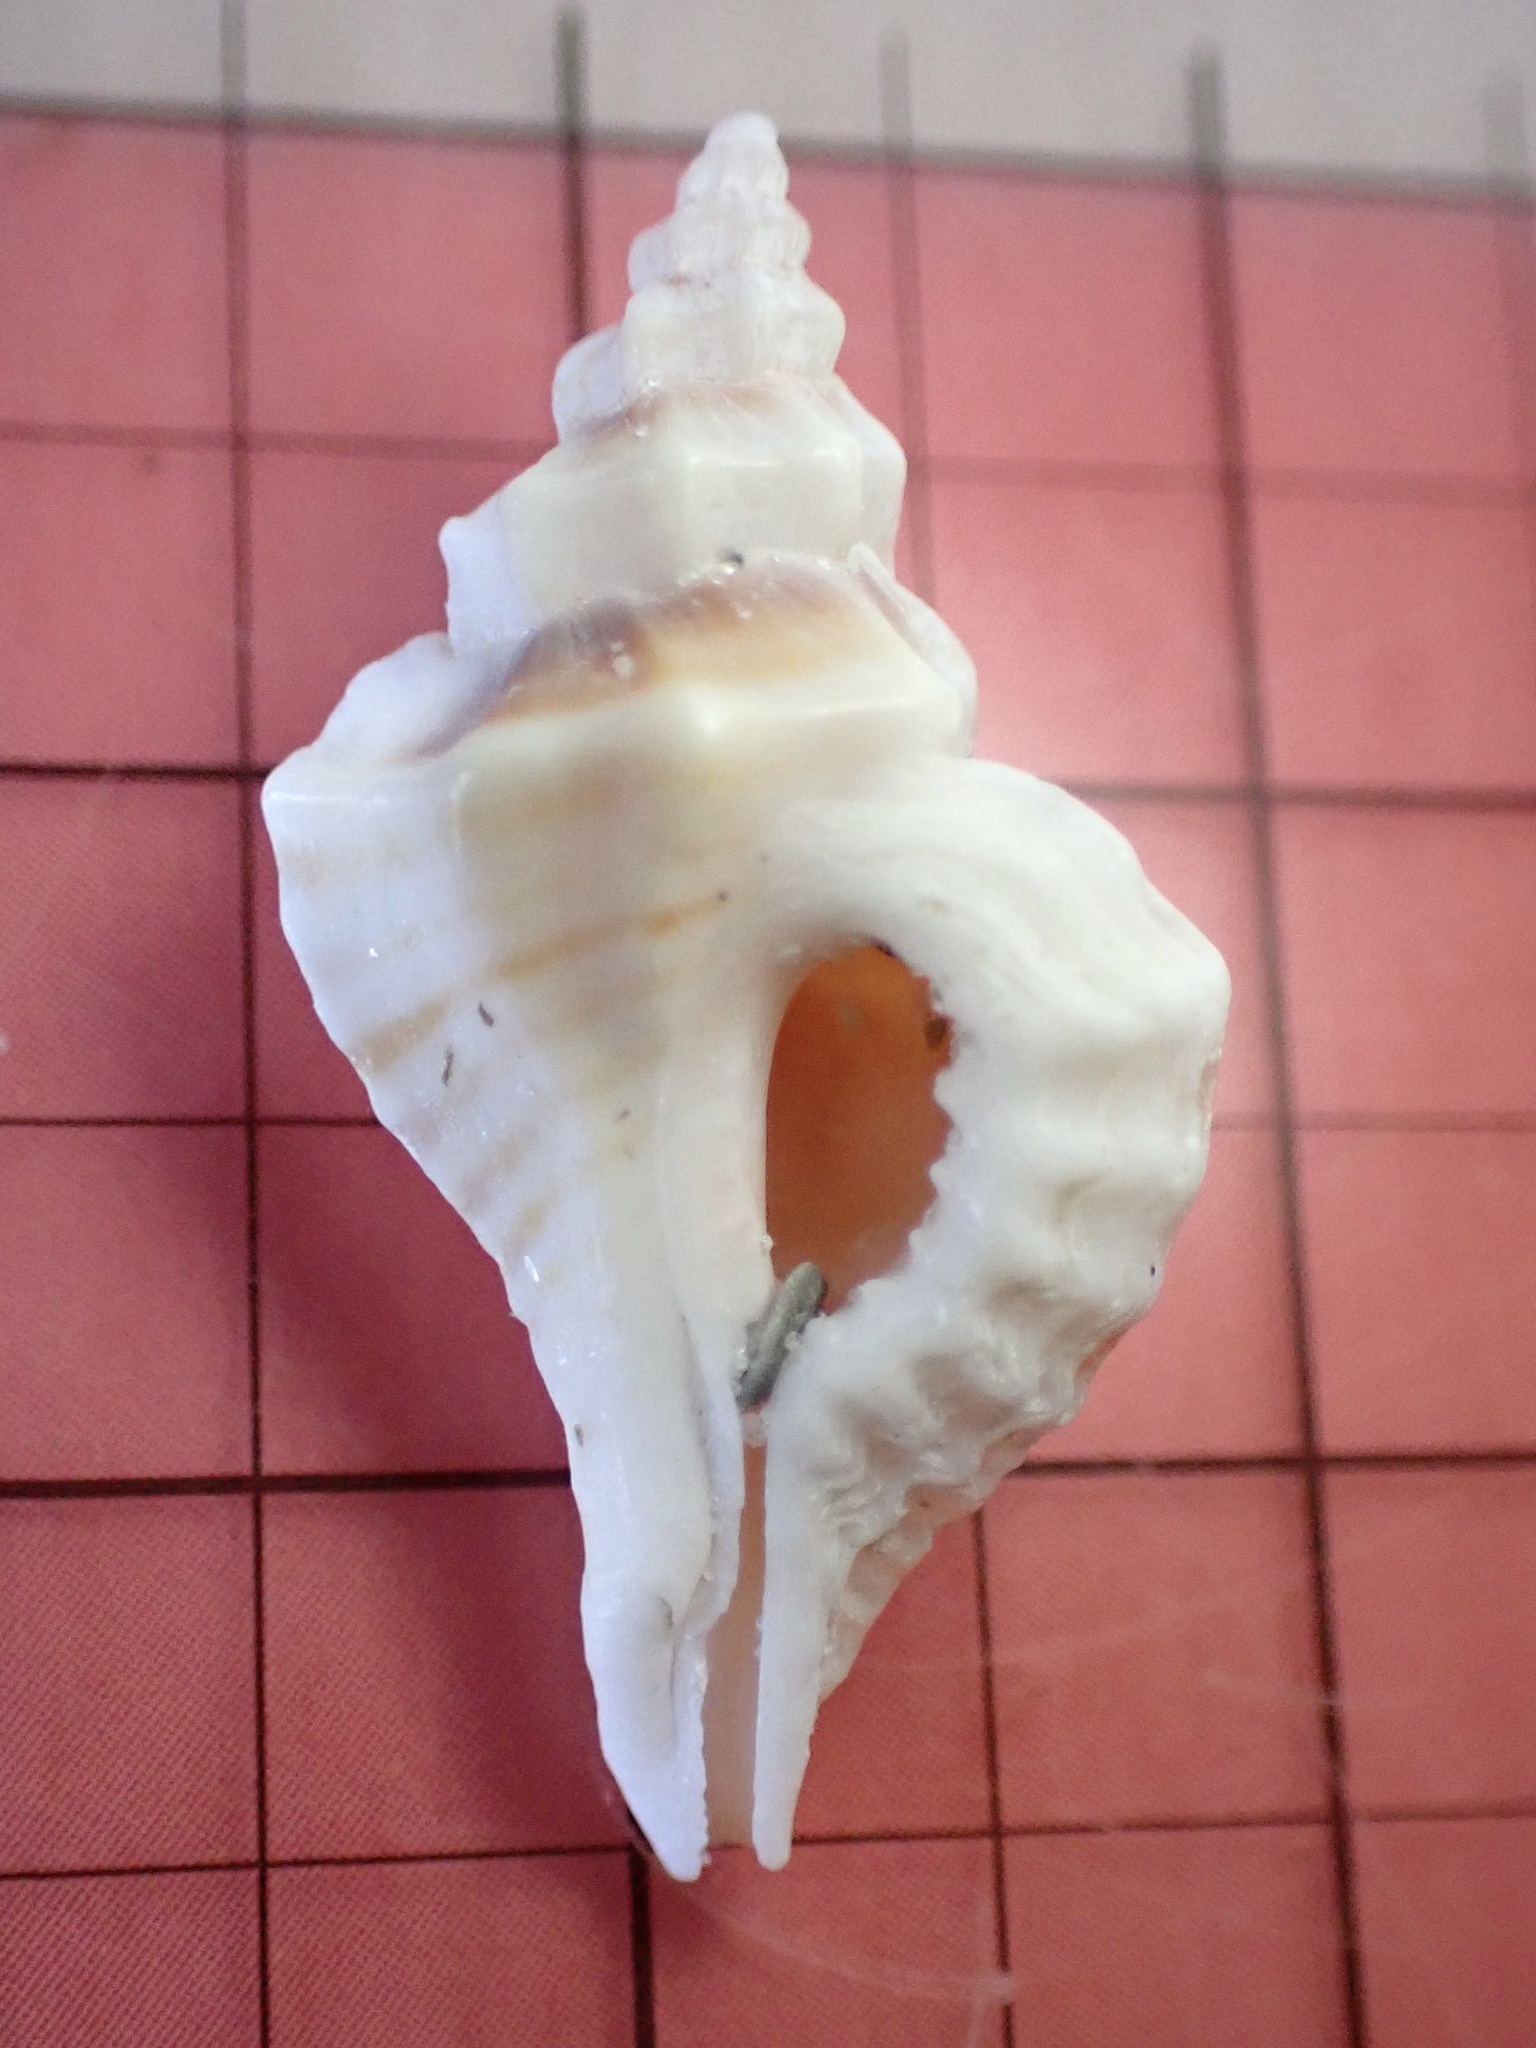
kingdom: Animalia
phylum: Mollusca
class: Gastropoda
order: Neogastropoda
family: Muricidae
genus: Eupleura
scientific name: Eupleura sulcidentata
